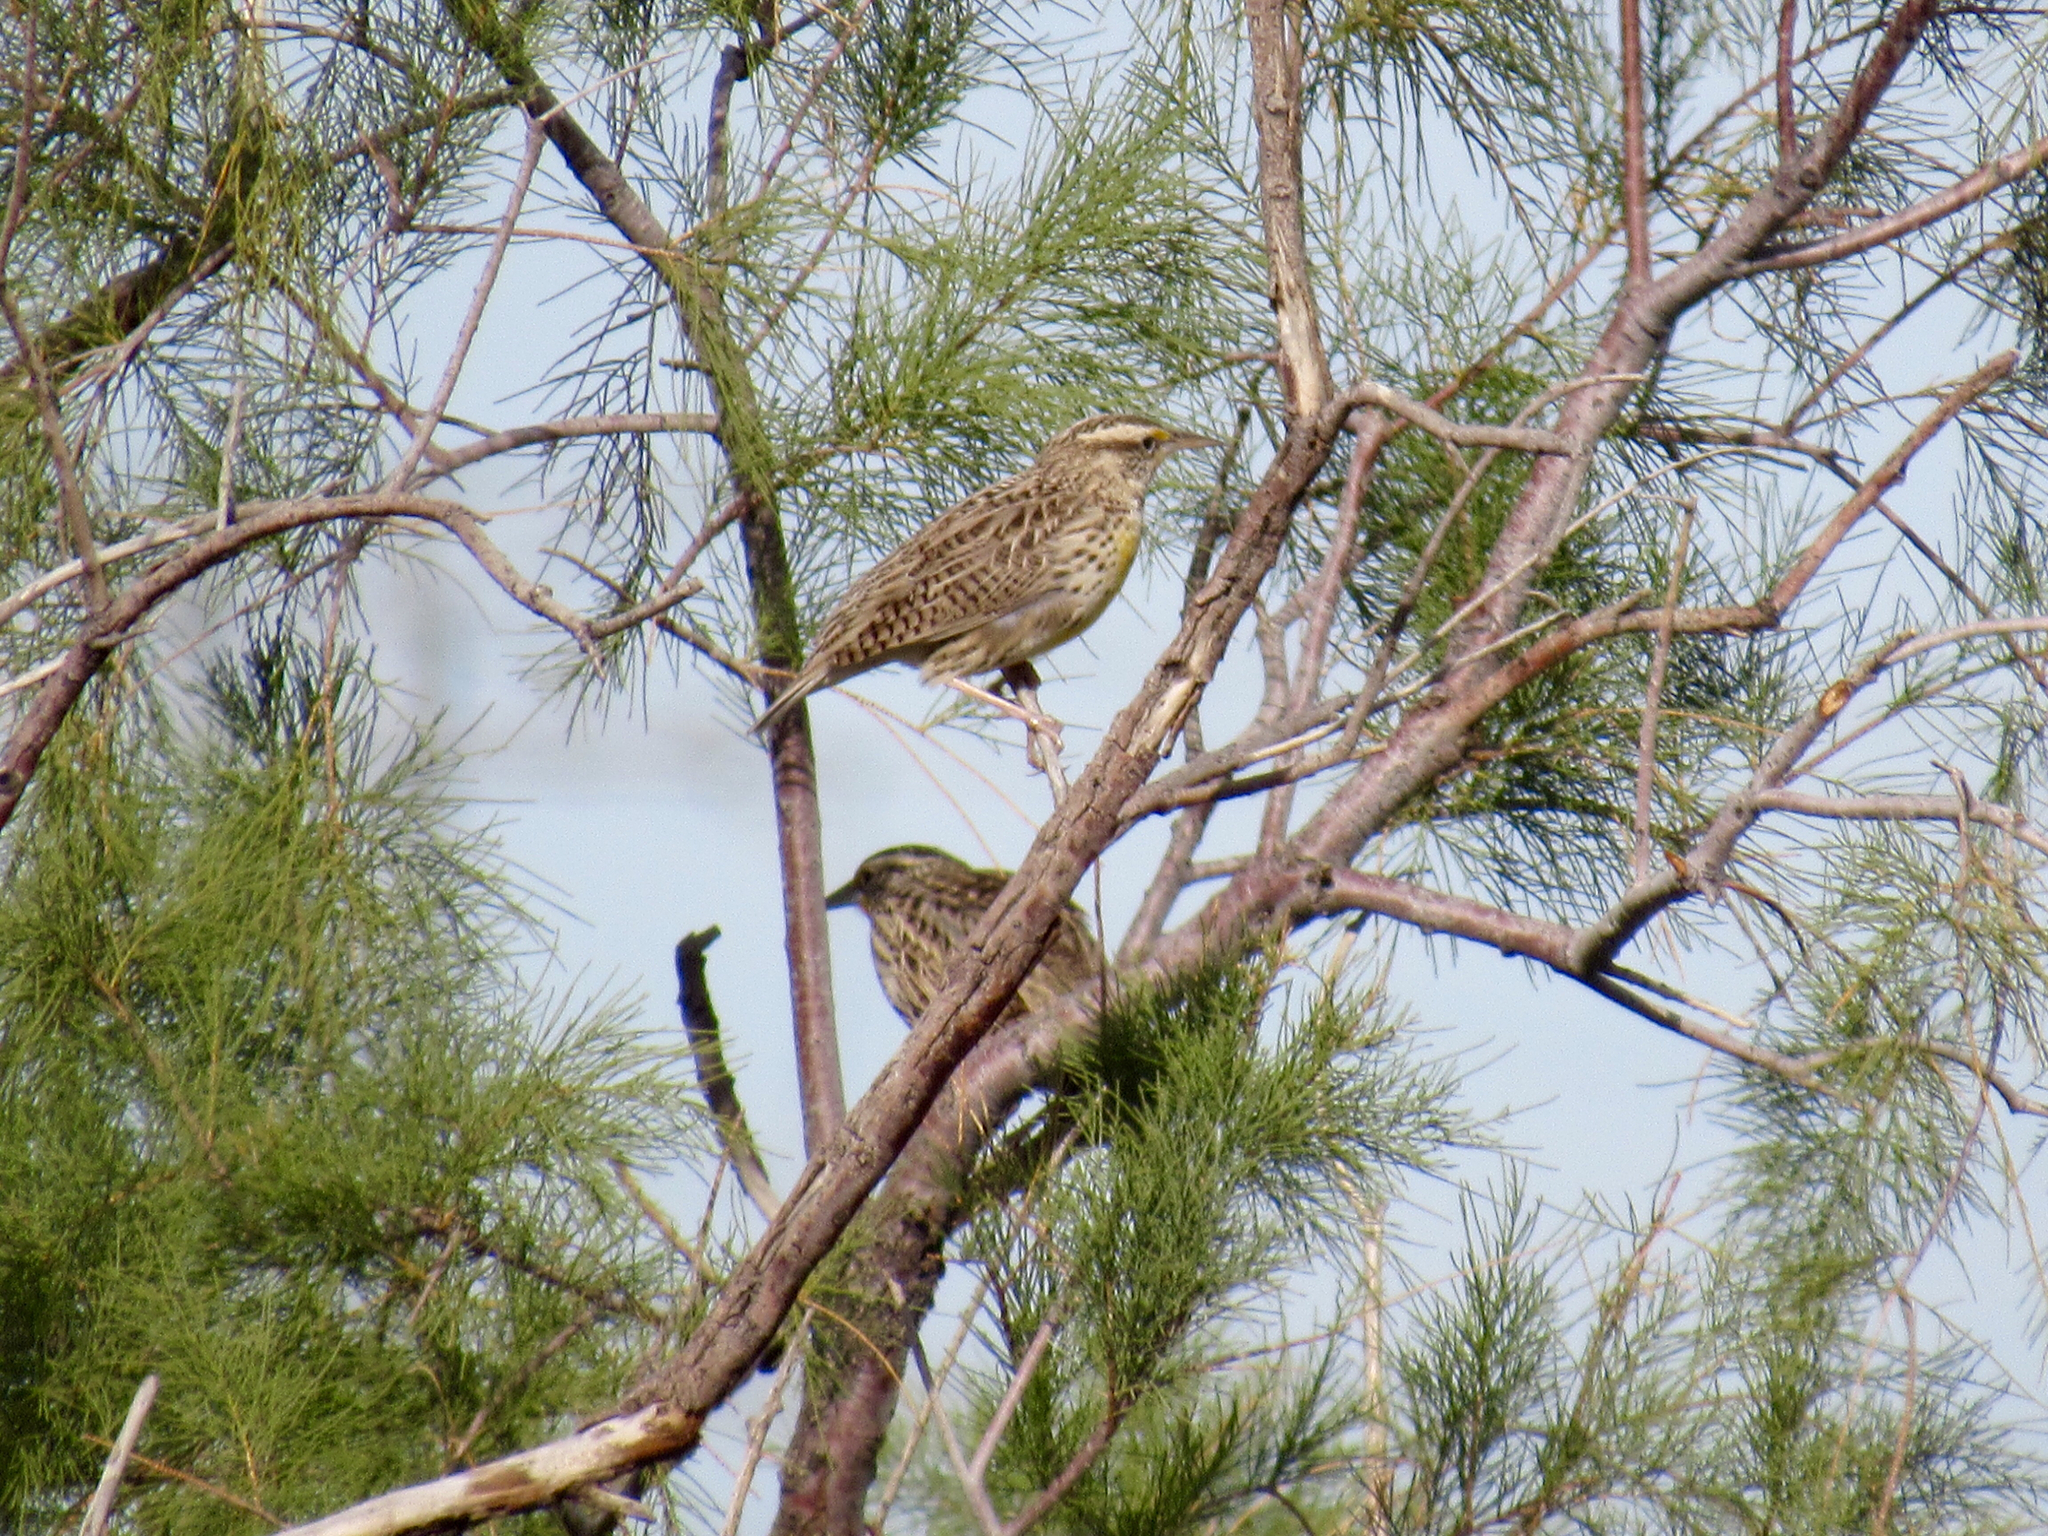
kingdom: Animalia
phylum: Chordata
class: Aves
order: Passeriformes
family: Icteridae
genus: Sturnella
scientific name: Sturnella neglecta
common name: Western meadowlark
